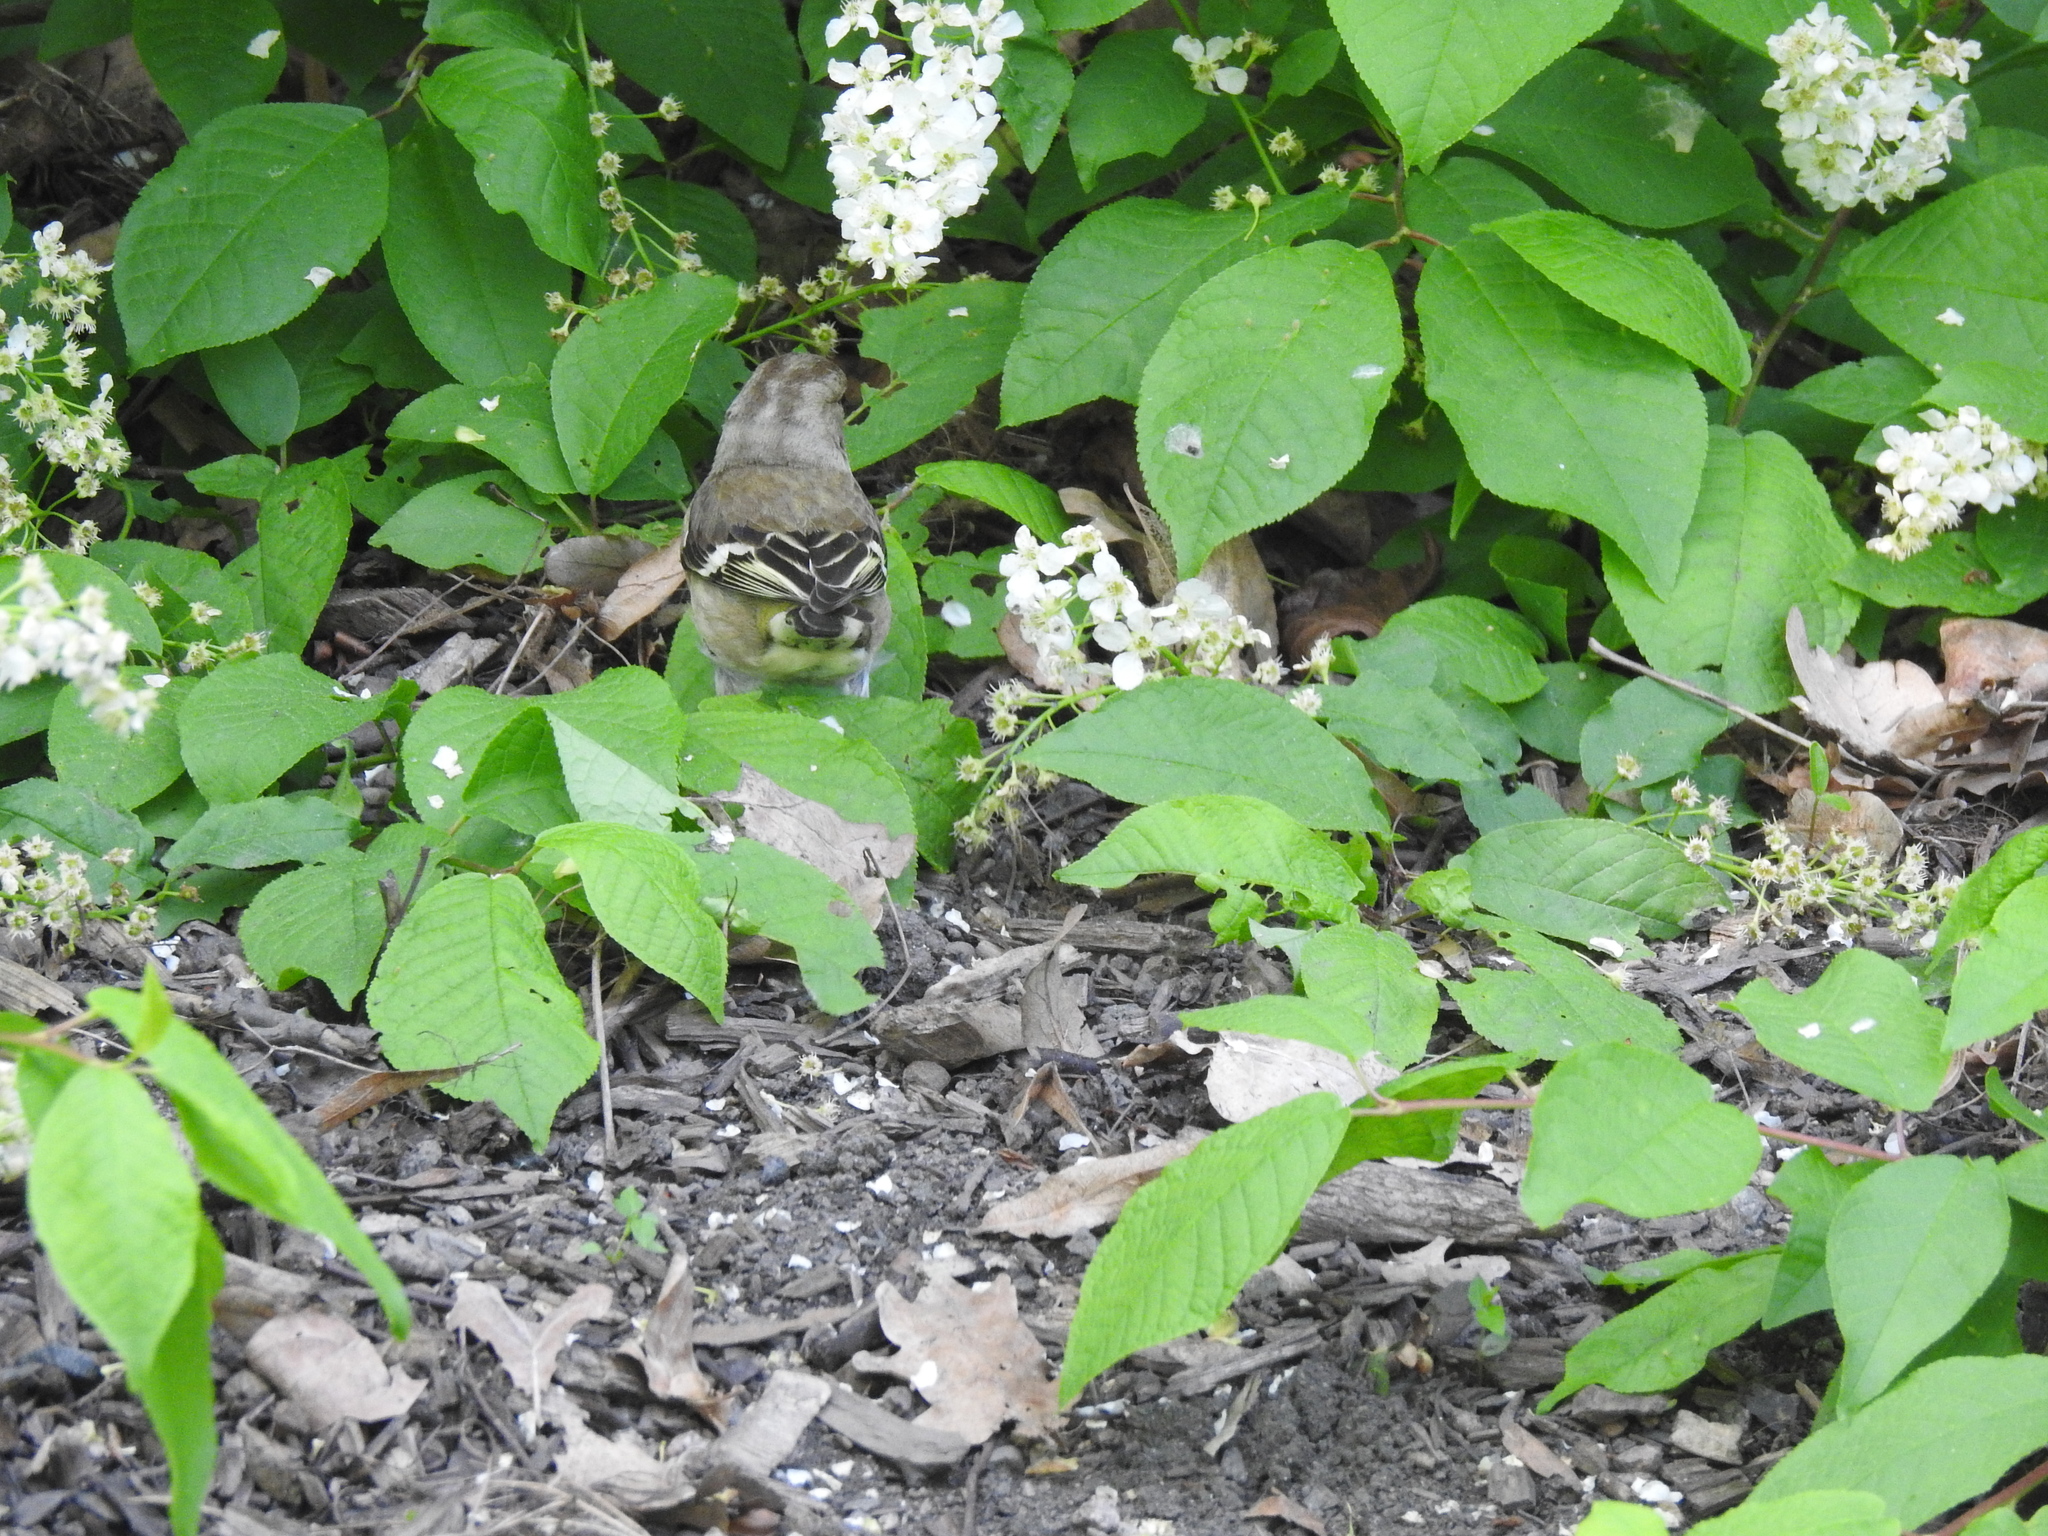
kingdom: Animalia
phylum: Chordata
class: Aves
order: Passeriformes
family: Fringillidae
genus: Fringilla
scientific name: Fringilla coelebs
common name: Common chaffinch
